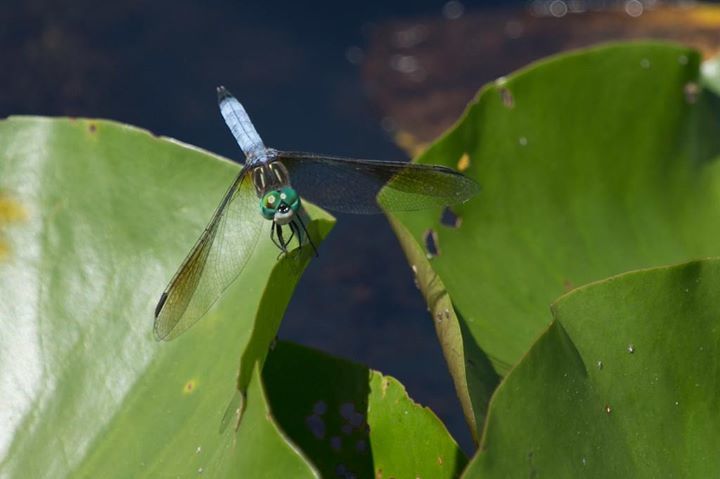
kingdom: Animalia
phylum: Arthropoda
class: Insecta
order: Odonata
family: Libellulidae
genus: Pachydiplax
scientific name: Pachydiplax longipennis
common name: Blue dasher
